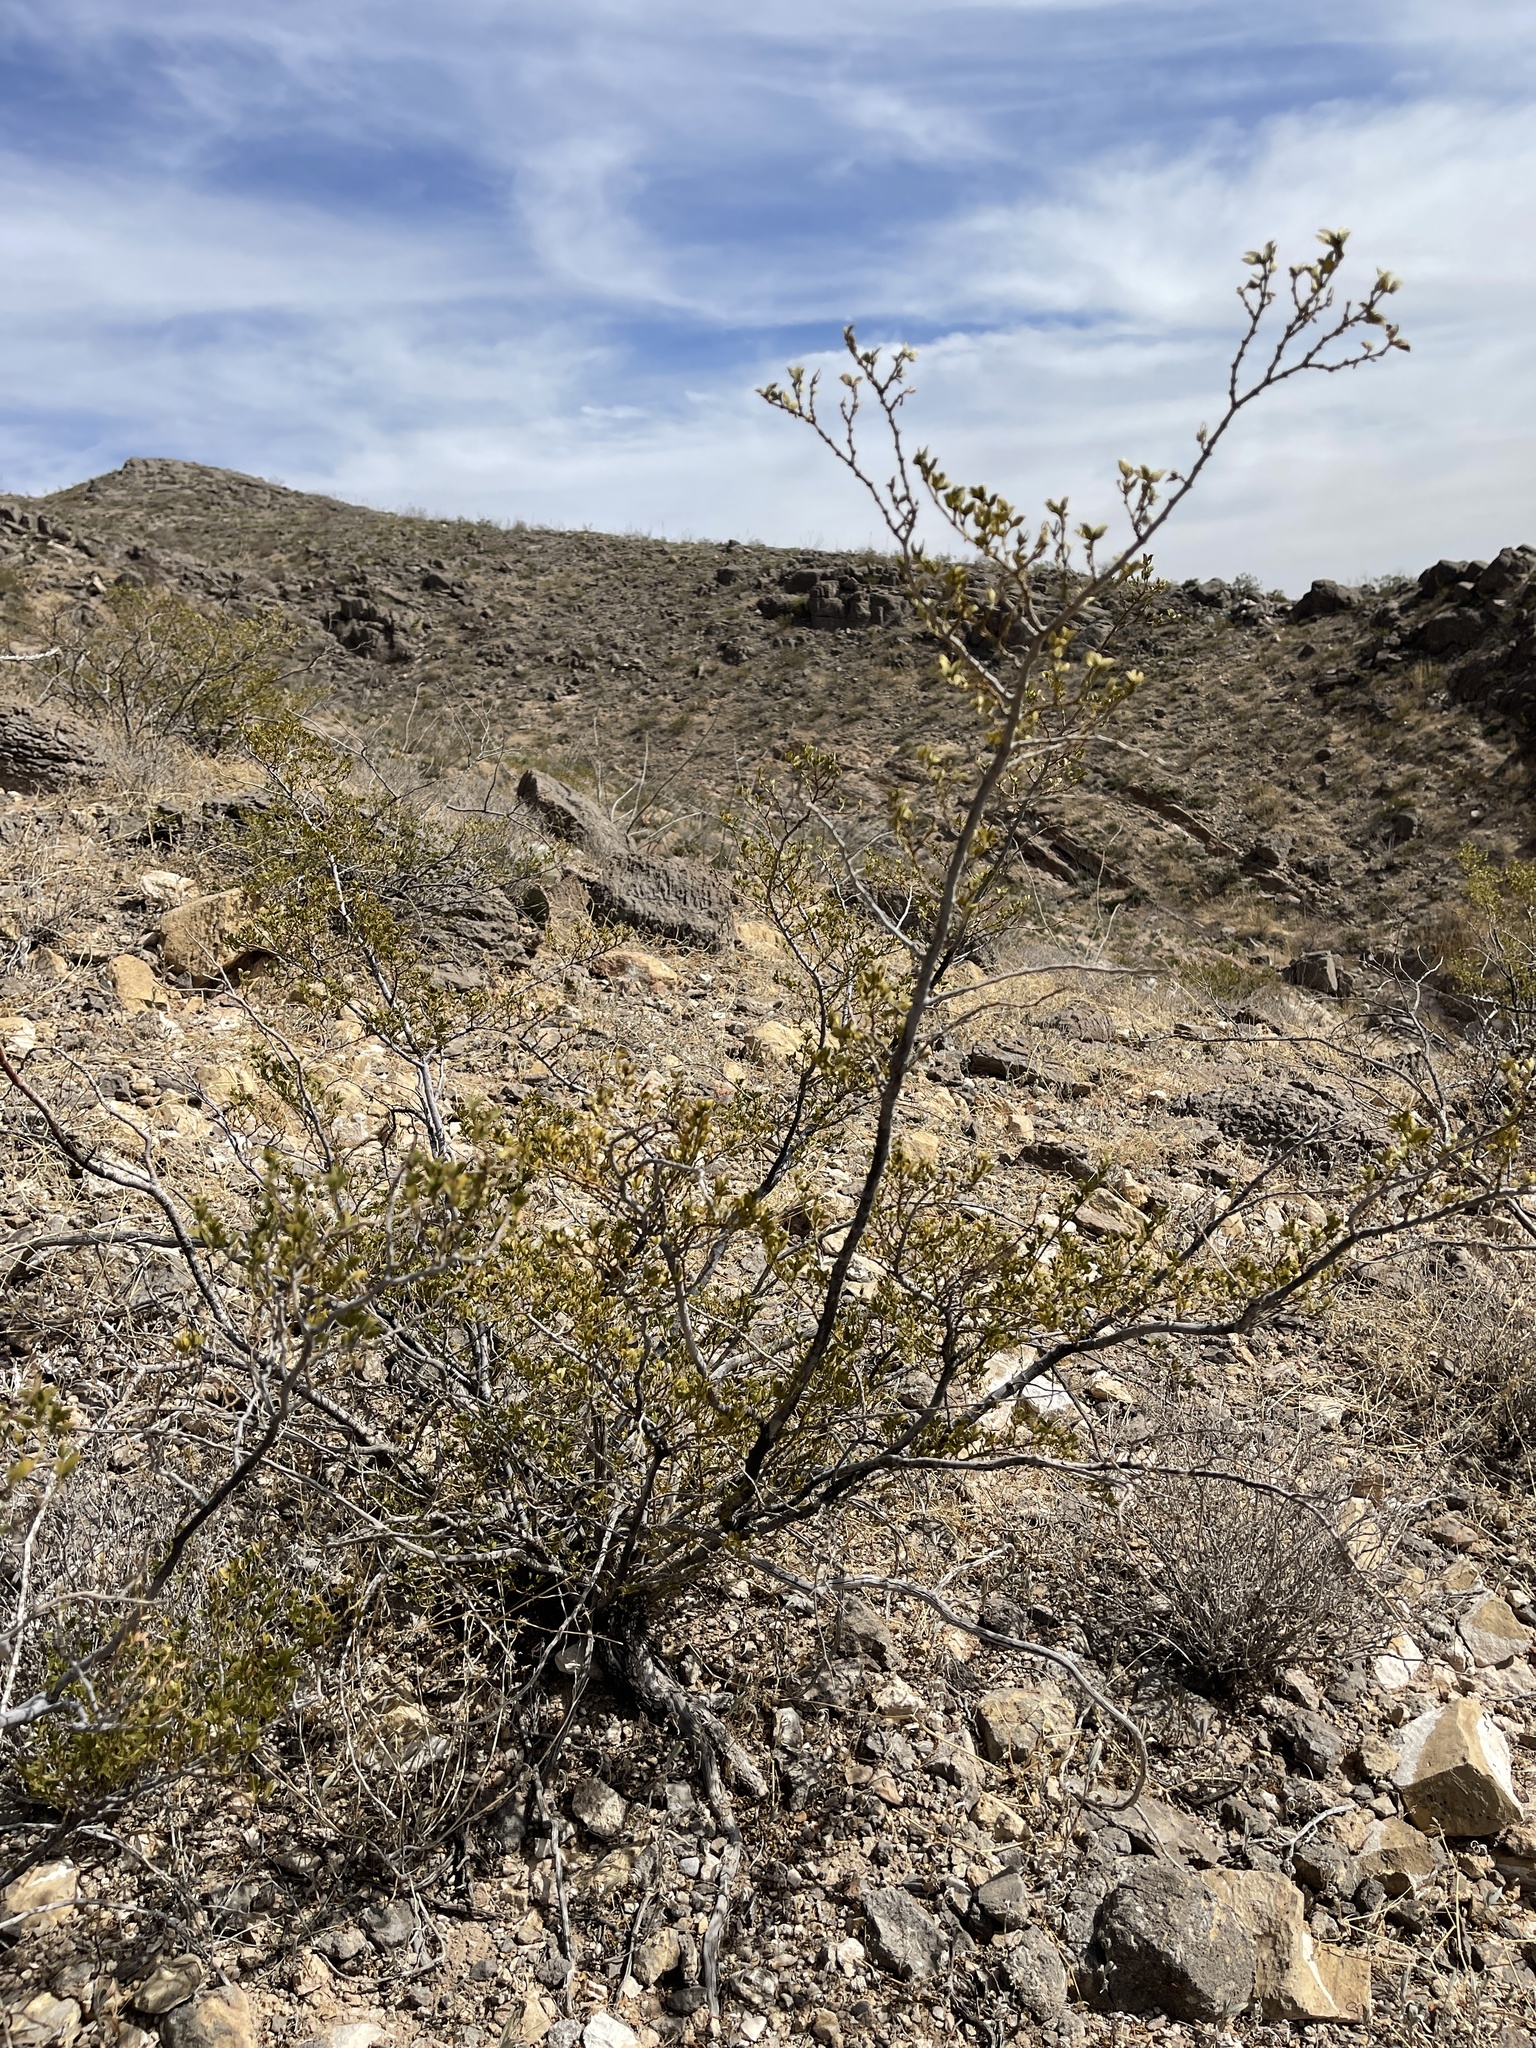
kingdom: Plantae
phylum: Tracheophyta
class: Magnoliopsida
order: Zygophyllales
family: Zygophyllaceae
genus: Larrea
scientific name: Larrea tridentata
